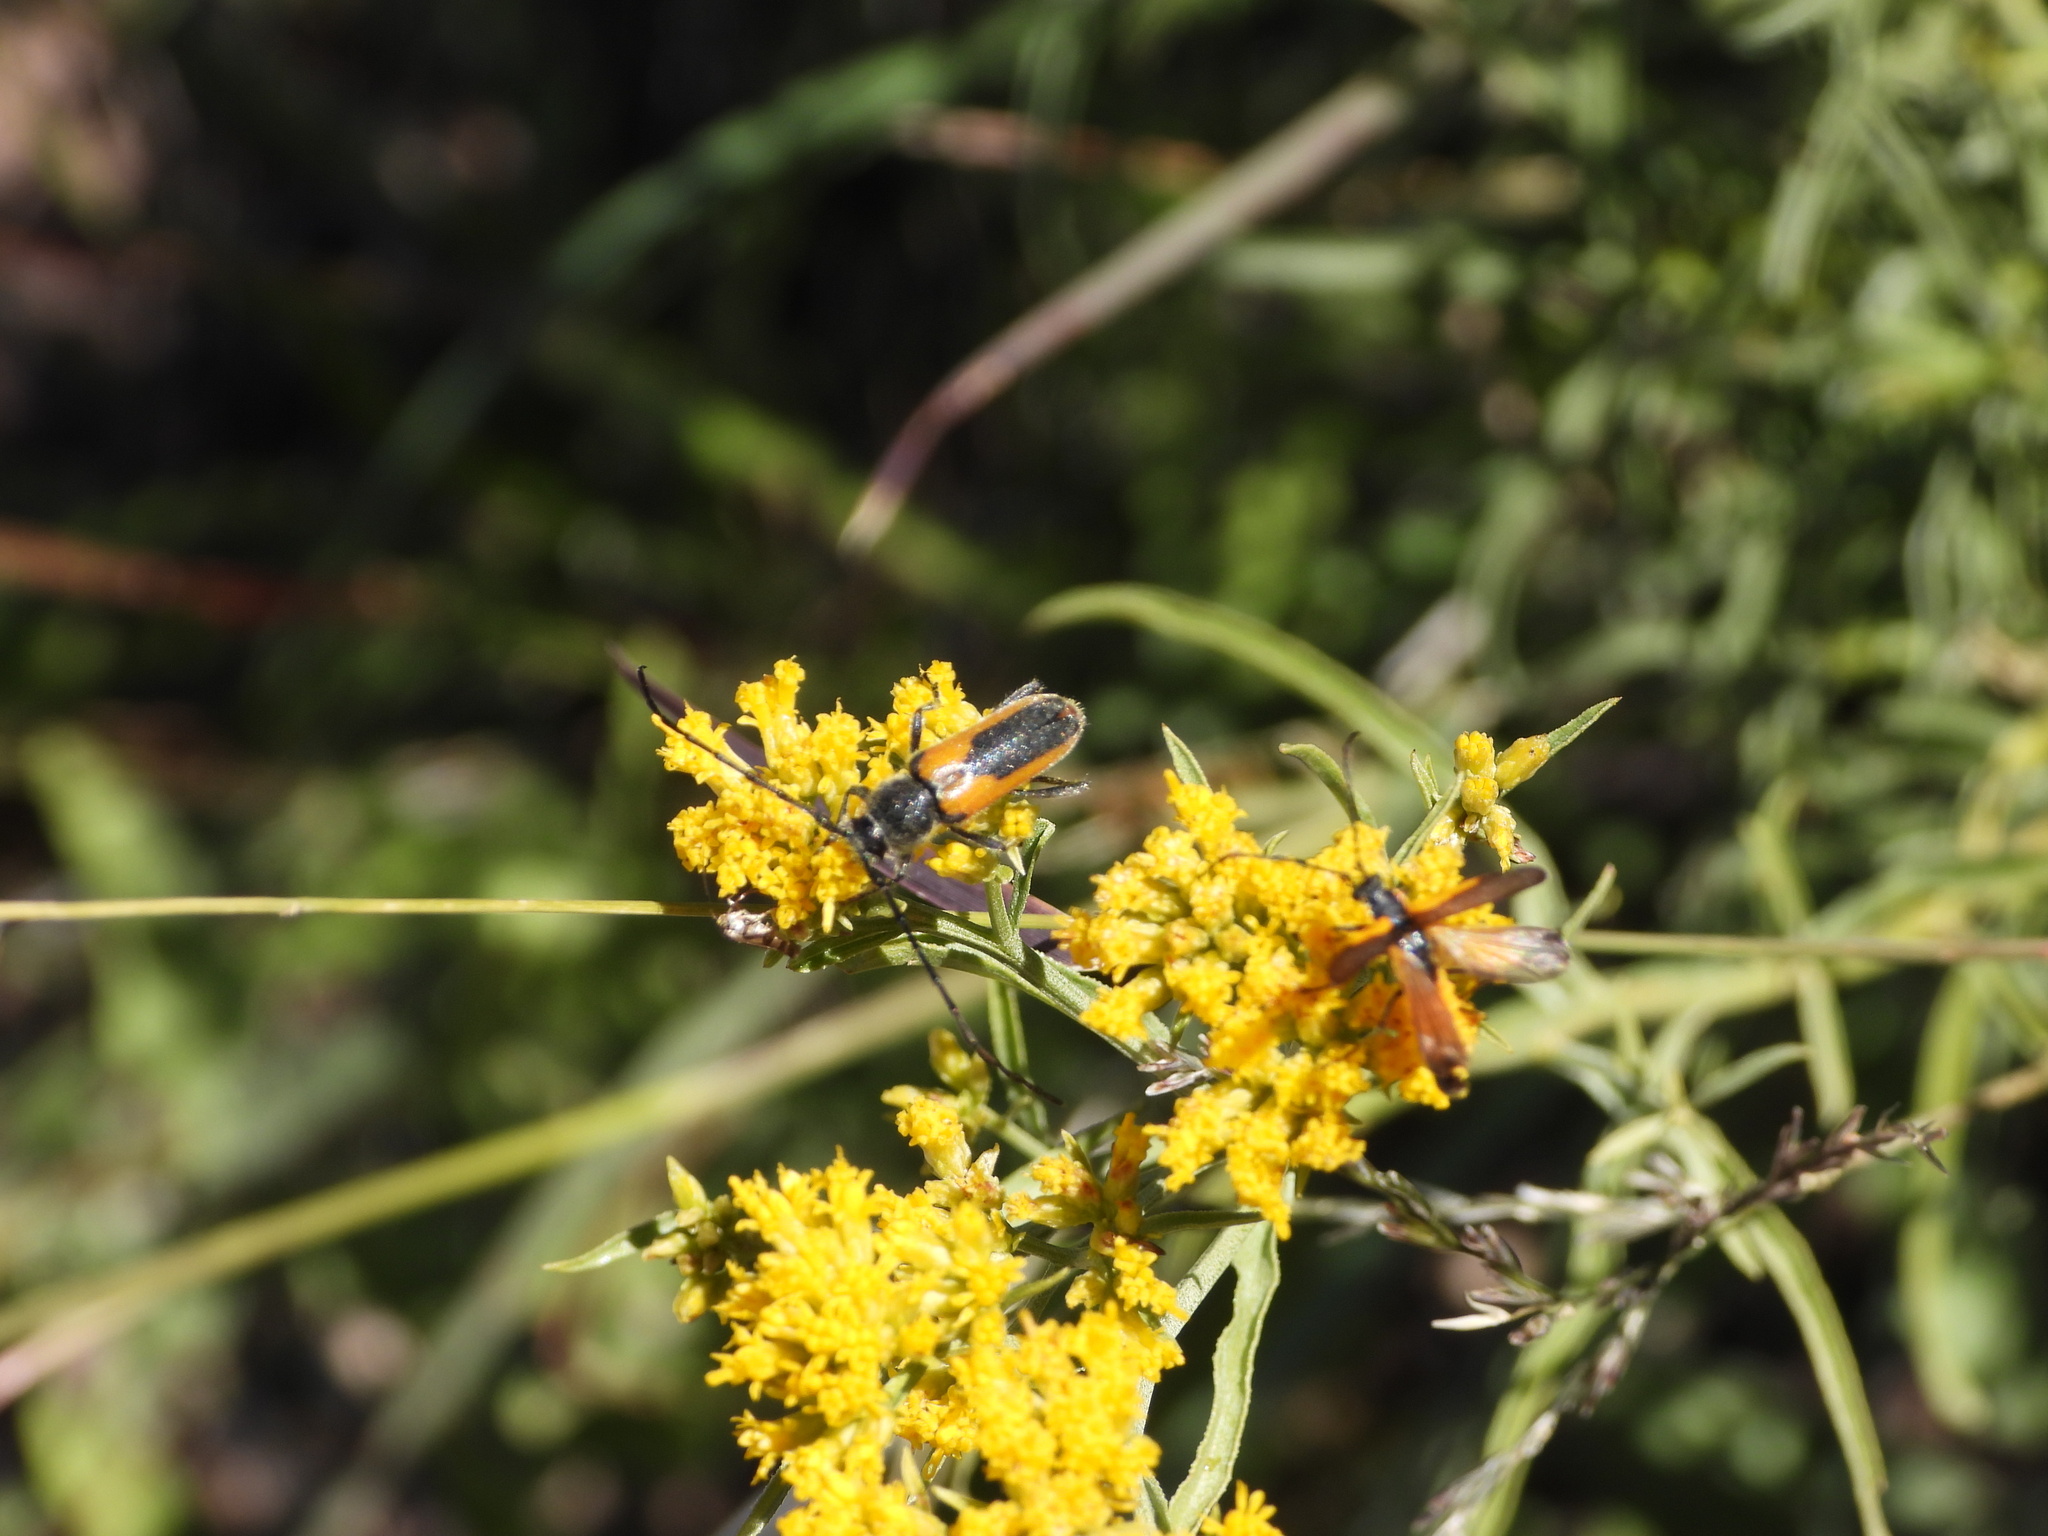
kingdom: Animalia
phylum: Arthropoda
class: Insecta
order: Coleoptera
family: Cerambycidae
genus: Crossidius
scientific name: Crossidius pulchellus
